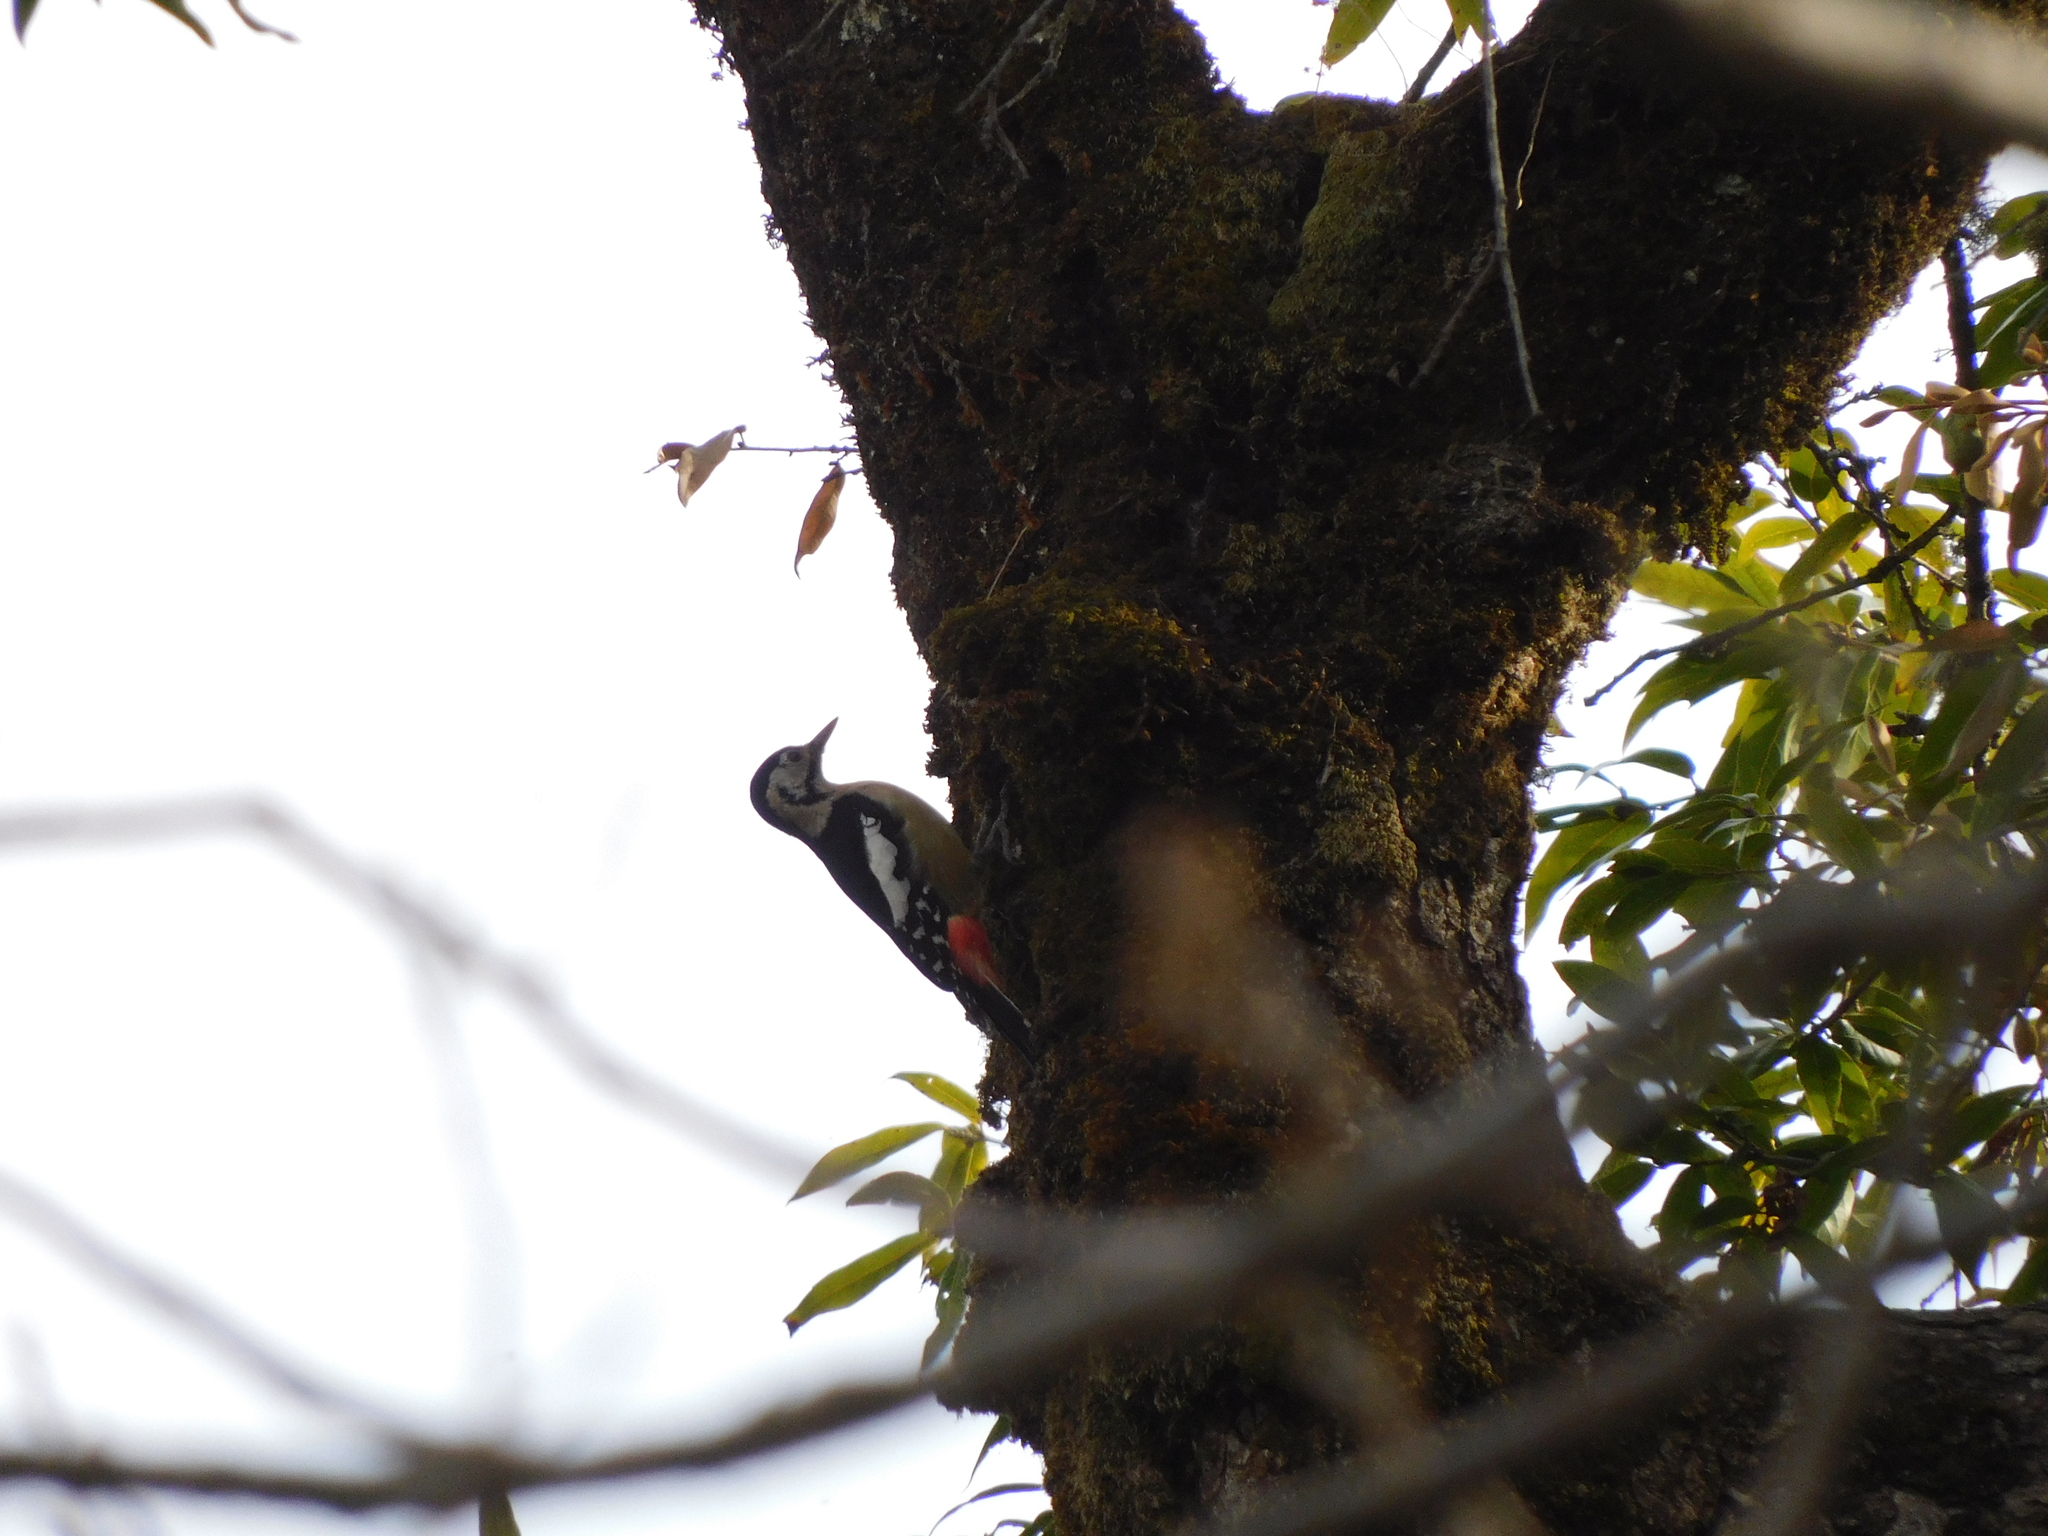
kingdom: Animalia
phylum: Chordata
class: Aves
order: Piciformes
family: Picidae
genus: Dendrocopos
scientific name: Dendrocopos himalayensis
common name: Himalayan woodpecker
